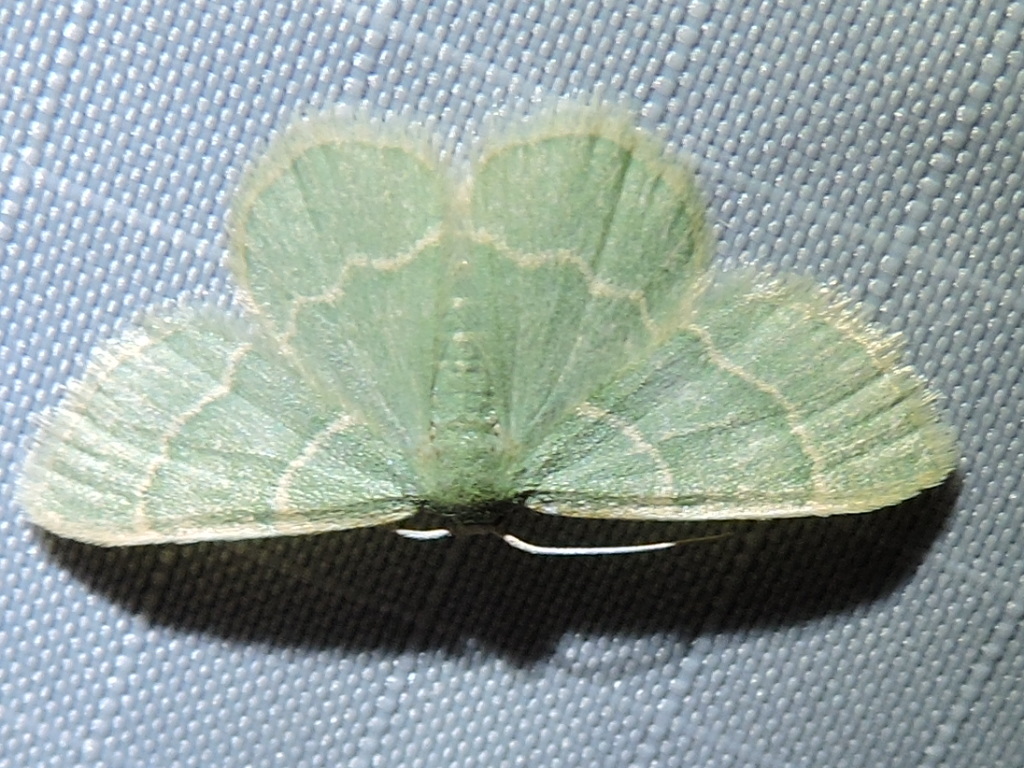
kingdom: Animalia
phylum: Arthropoda
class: Insecta
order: Lepidoptera
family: Geometridae
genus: Chlorochlamys
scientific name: Chlorochlamys phyllinaria
